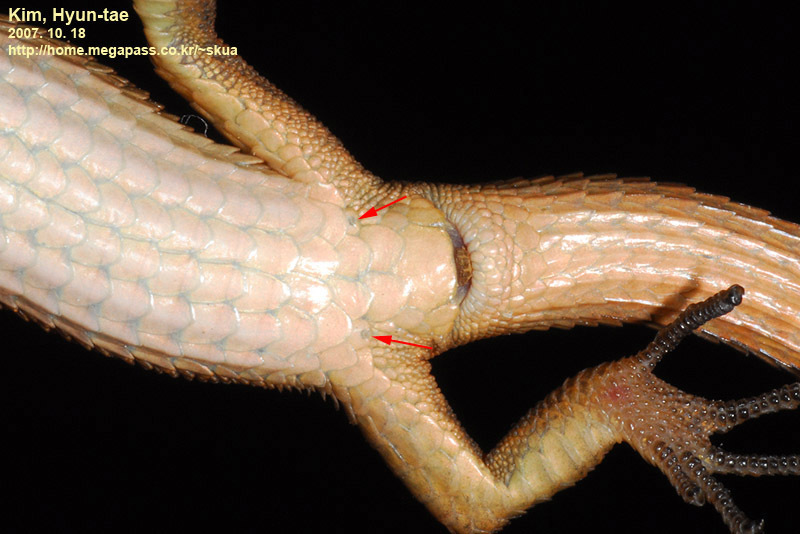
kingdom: Animalia
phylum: Chordata
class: Squamata
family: Lacertidae
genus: Takydromus
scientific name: Takydromus wolteri
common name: Mountain grass lizard
